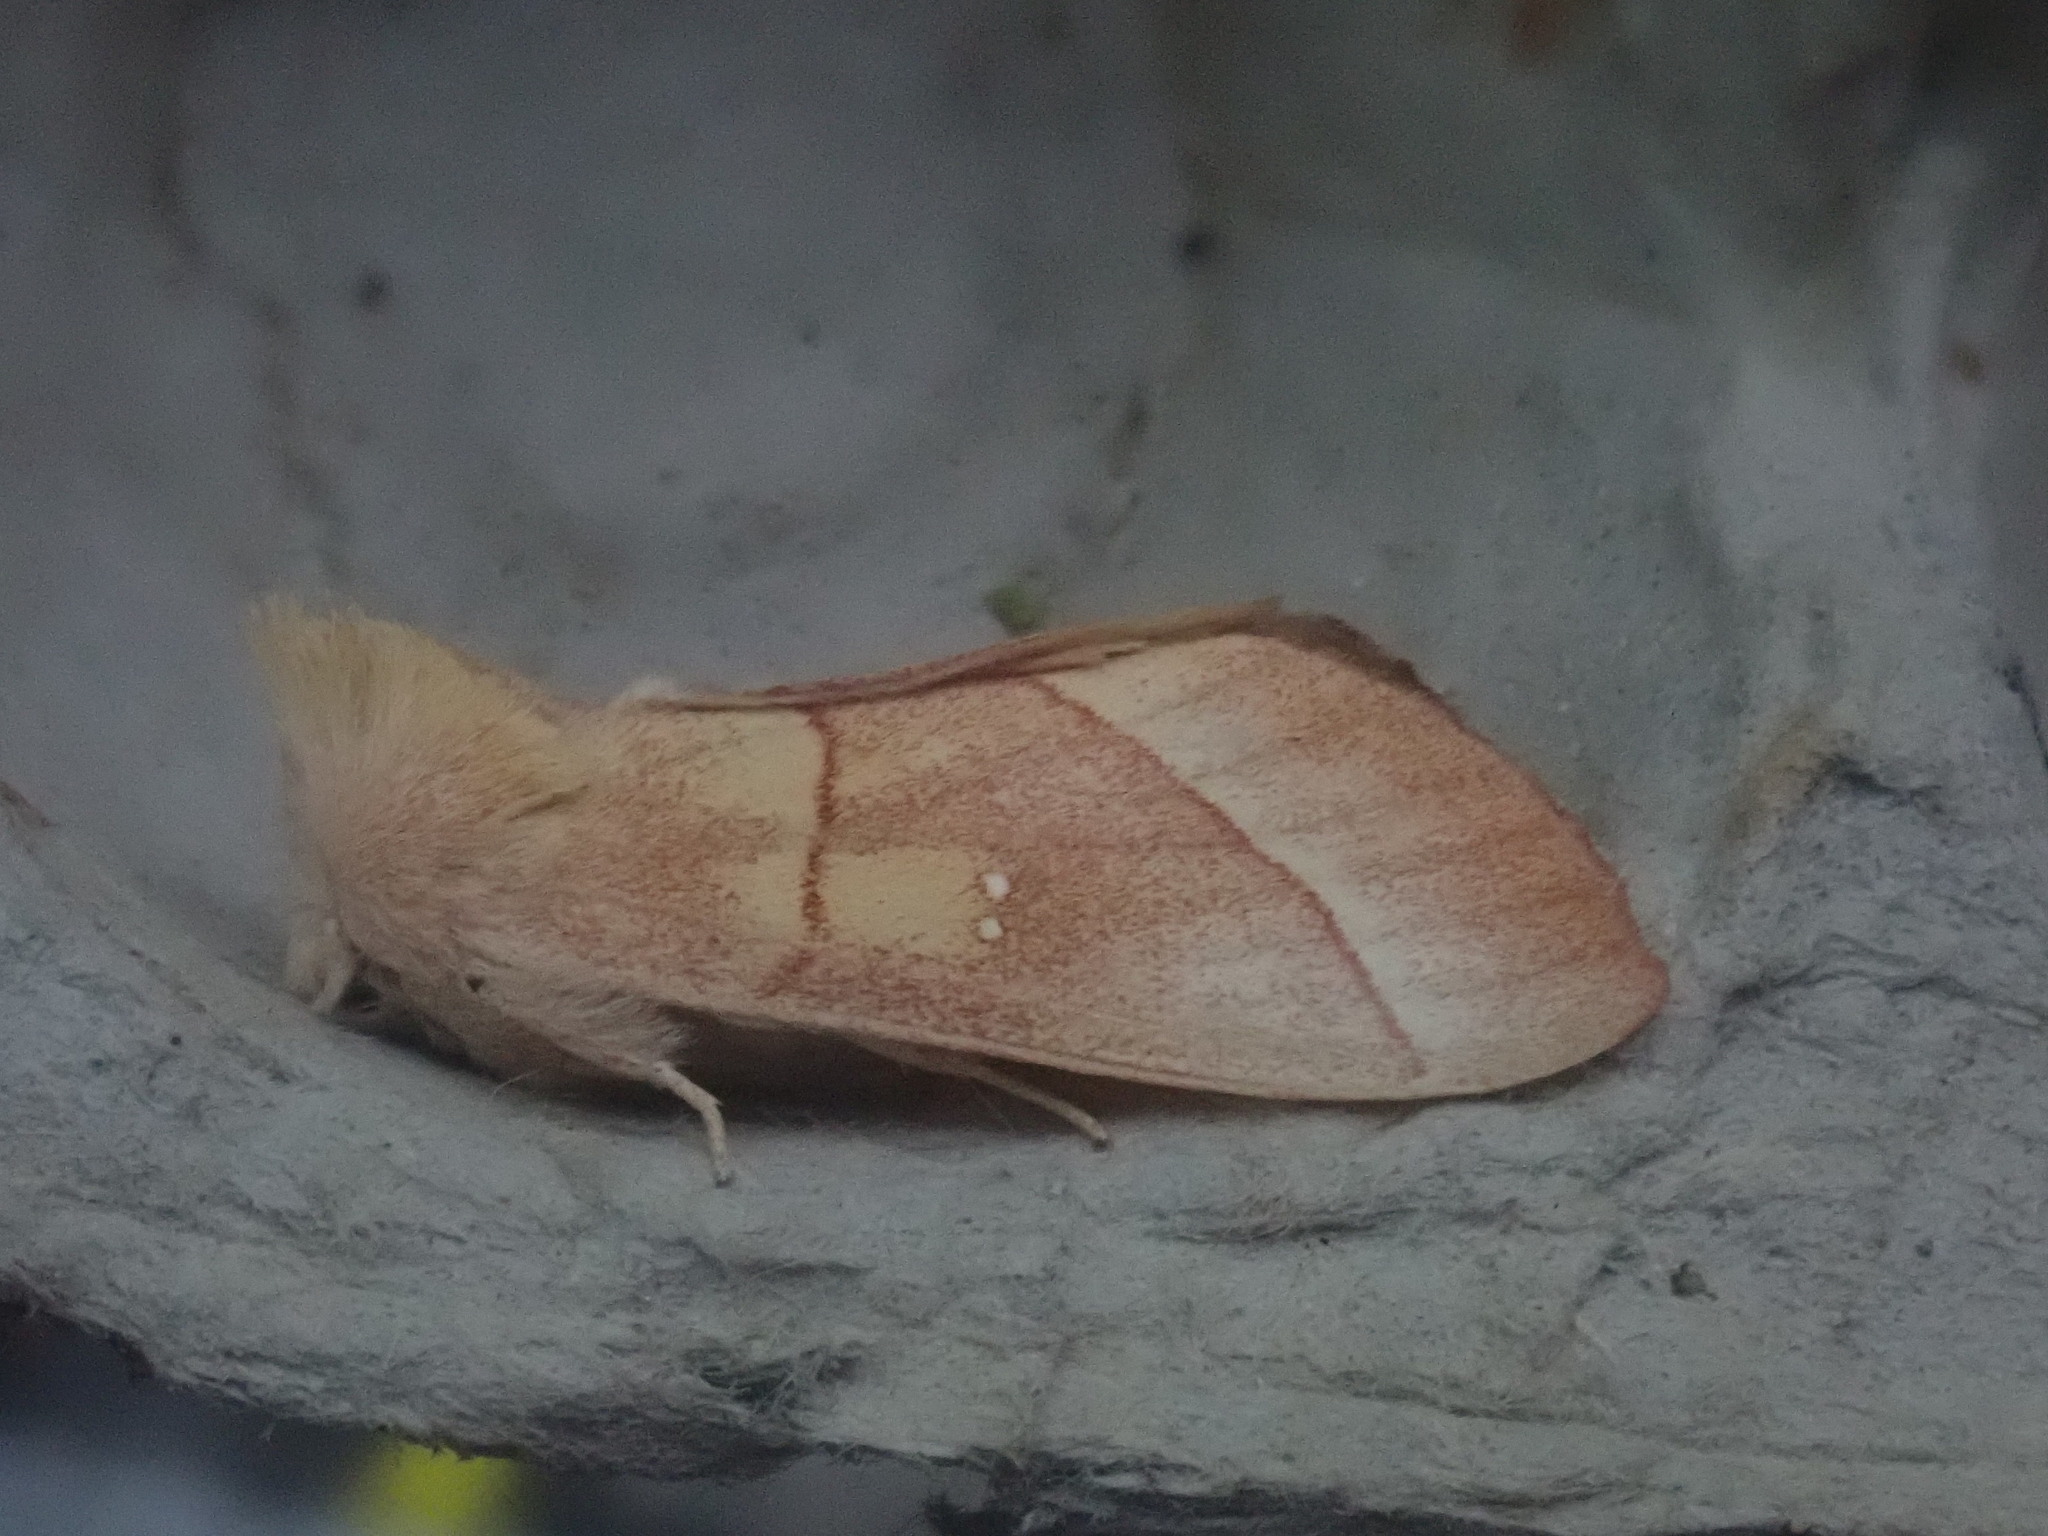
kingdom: Animalia
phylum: Arthropoda
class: Insecta
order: Lepidoptera
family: Notodontidae
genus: Nadata
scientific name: Nadata gibbosa
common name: White-dotted prominent
